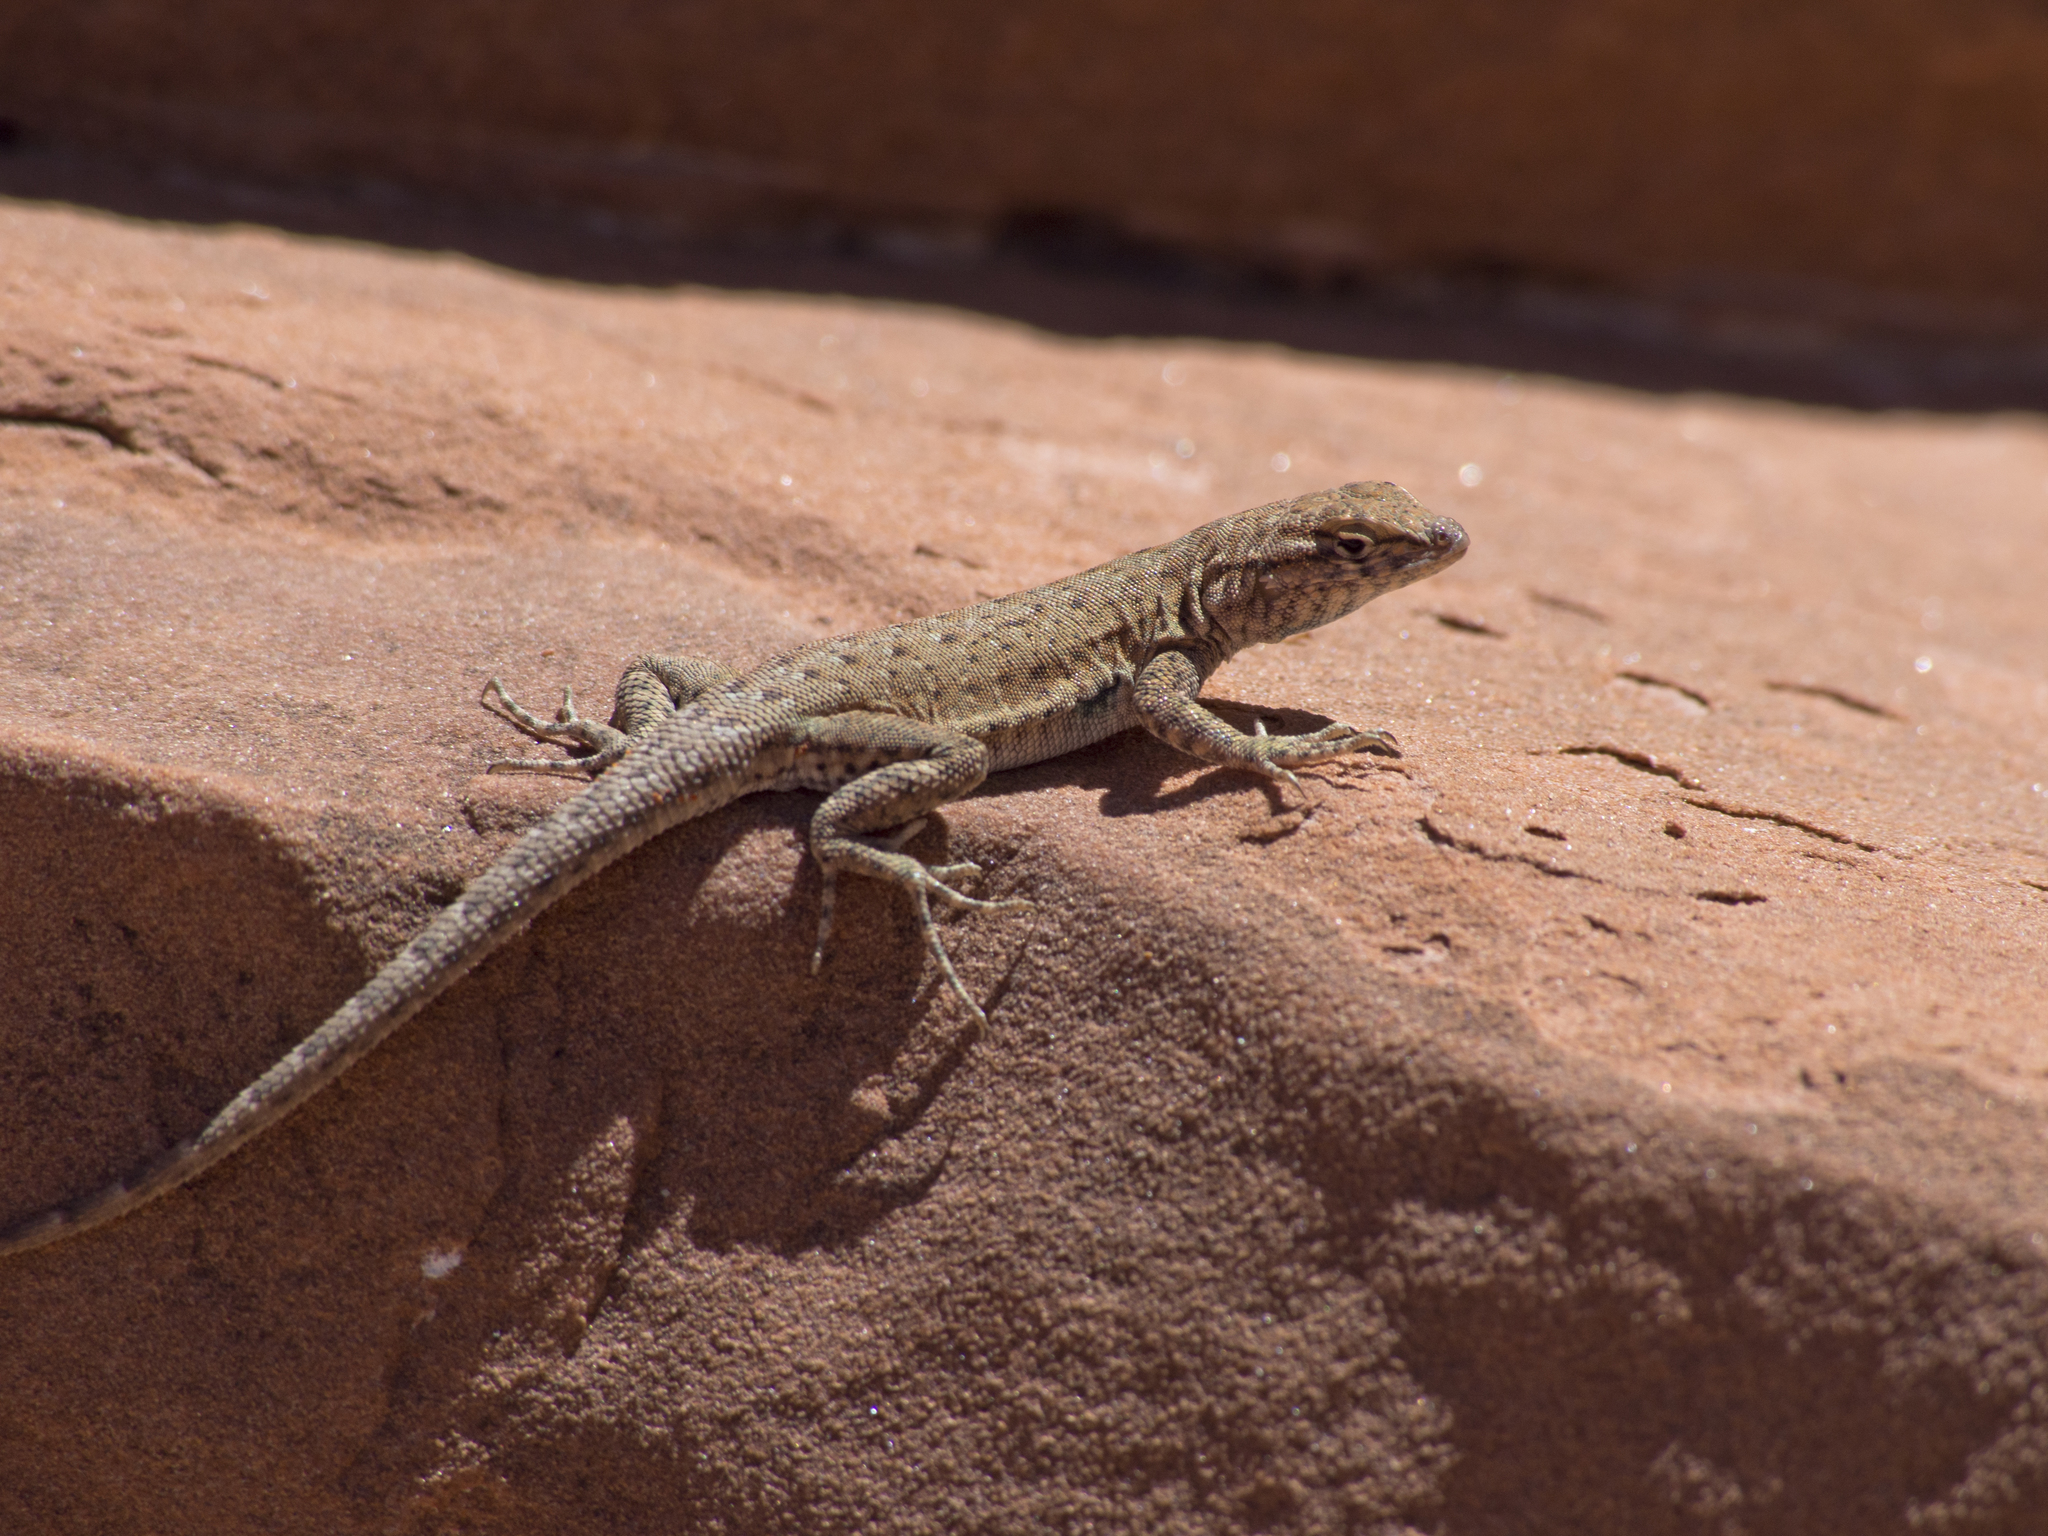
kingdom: Animalia
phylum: Chordata
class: Squamata
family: Phrynosomatidae
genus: Uta
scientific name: Uta stansburiana
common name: Side-blotched lizard
